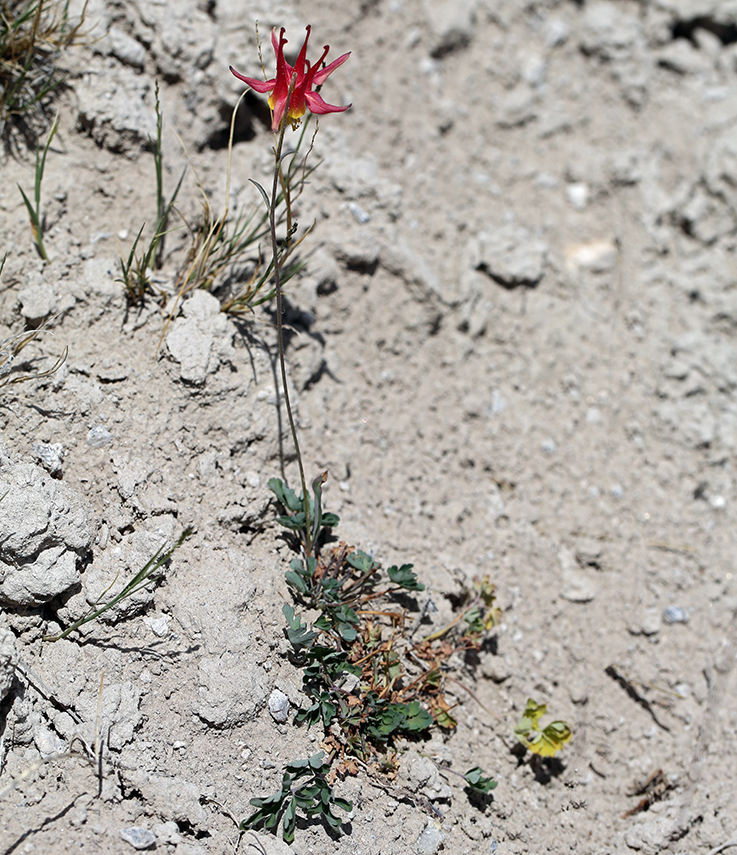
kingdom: Plantae
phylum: Tracheophyta
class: Magnoliopsida
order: Ranunculales
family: Ranunculaceae
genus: Aquilegia
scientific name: Aquilegia formosa
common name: Sitka columbine
